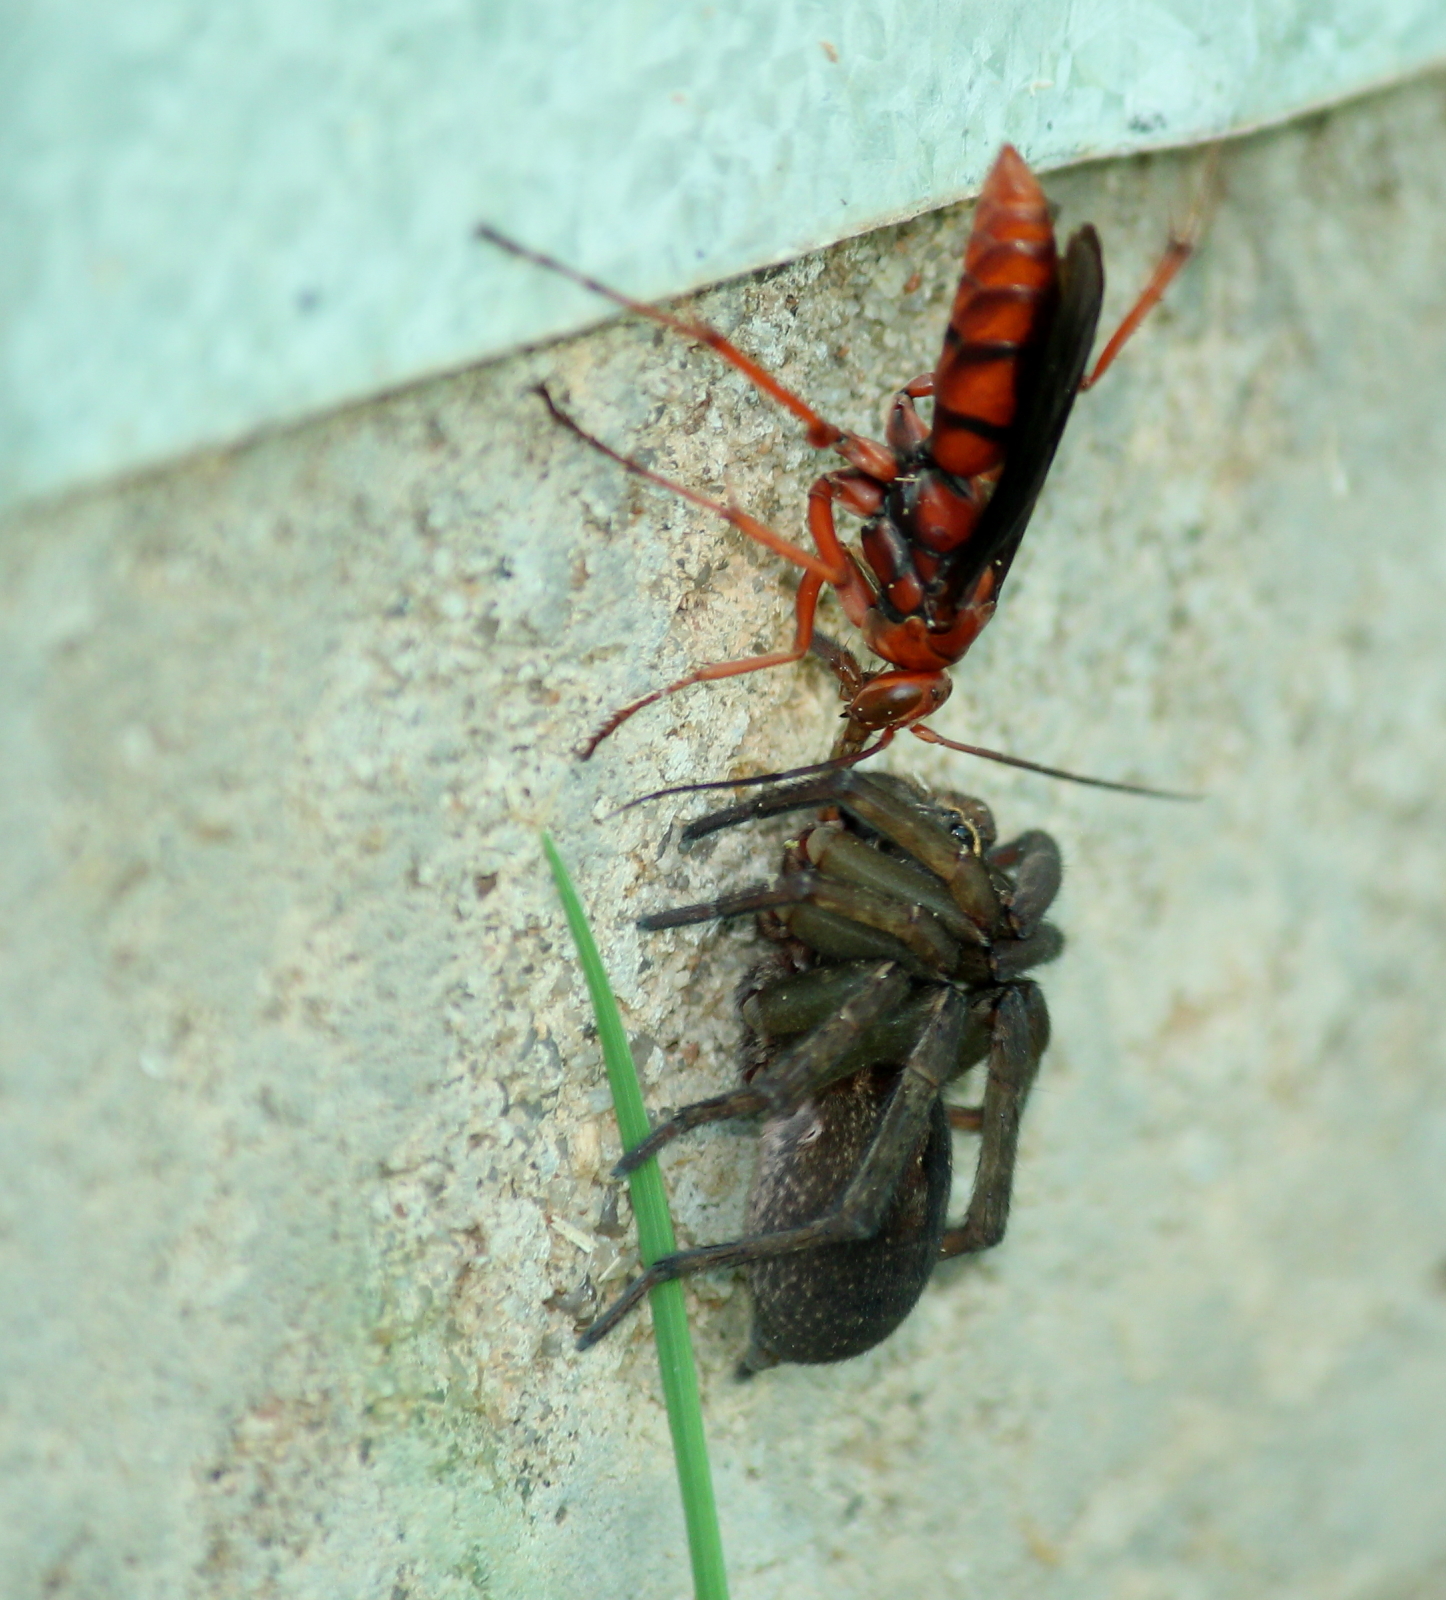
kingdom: Animalia
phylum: Arthropoda
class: Insecta
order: Hymenoptera
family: Pompilidae
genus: Tachypompilus
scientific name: Tachypompilus ferrugineus
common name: Rusty spider wasp
